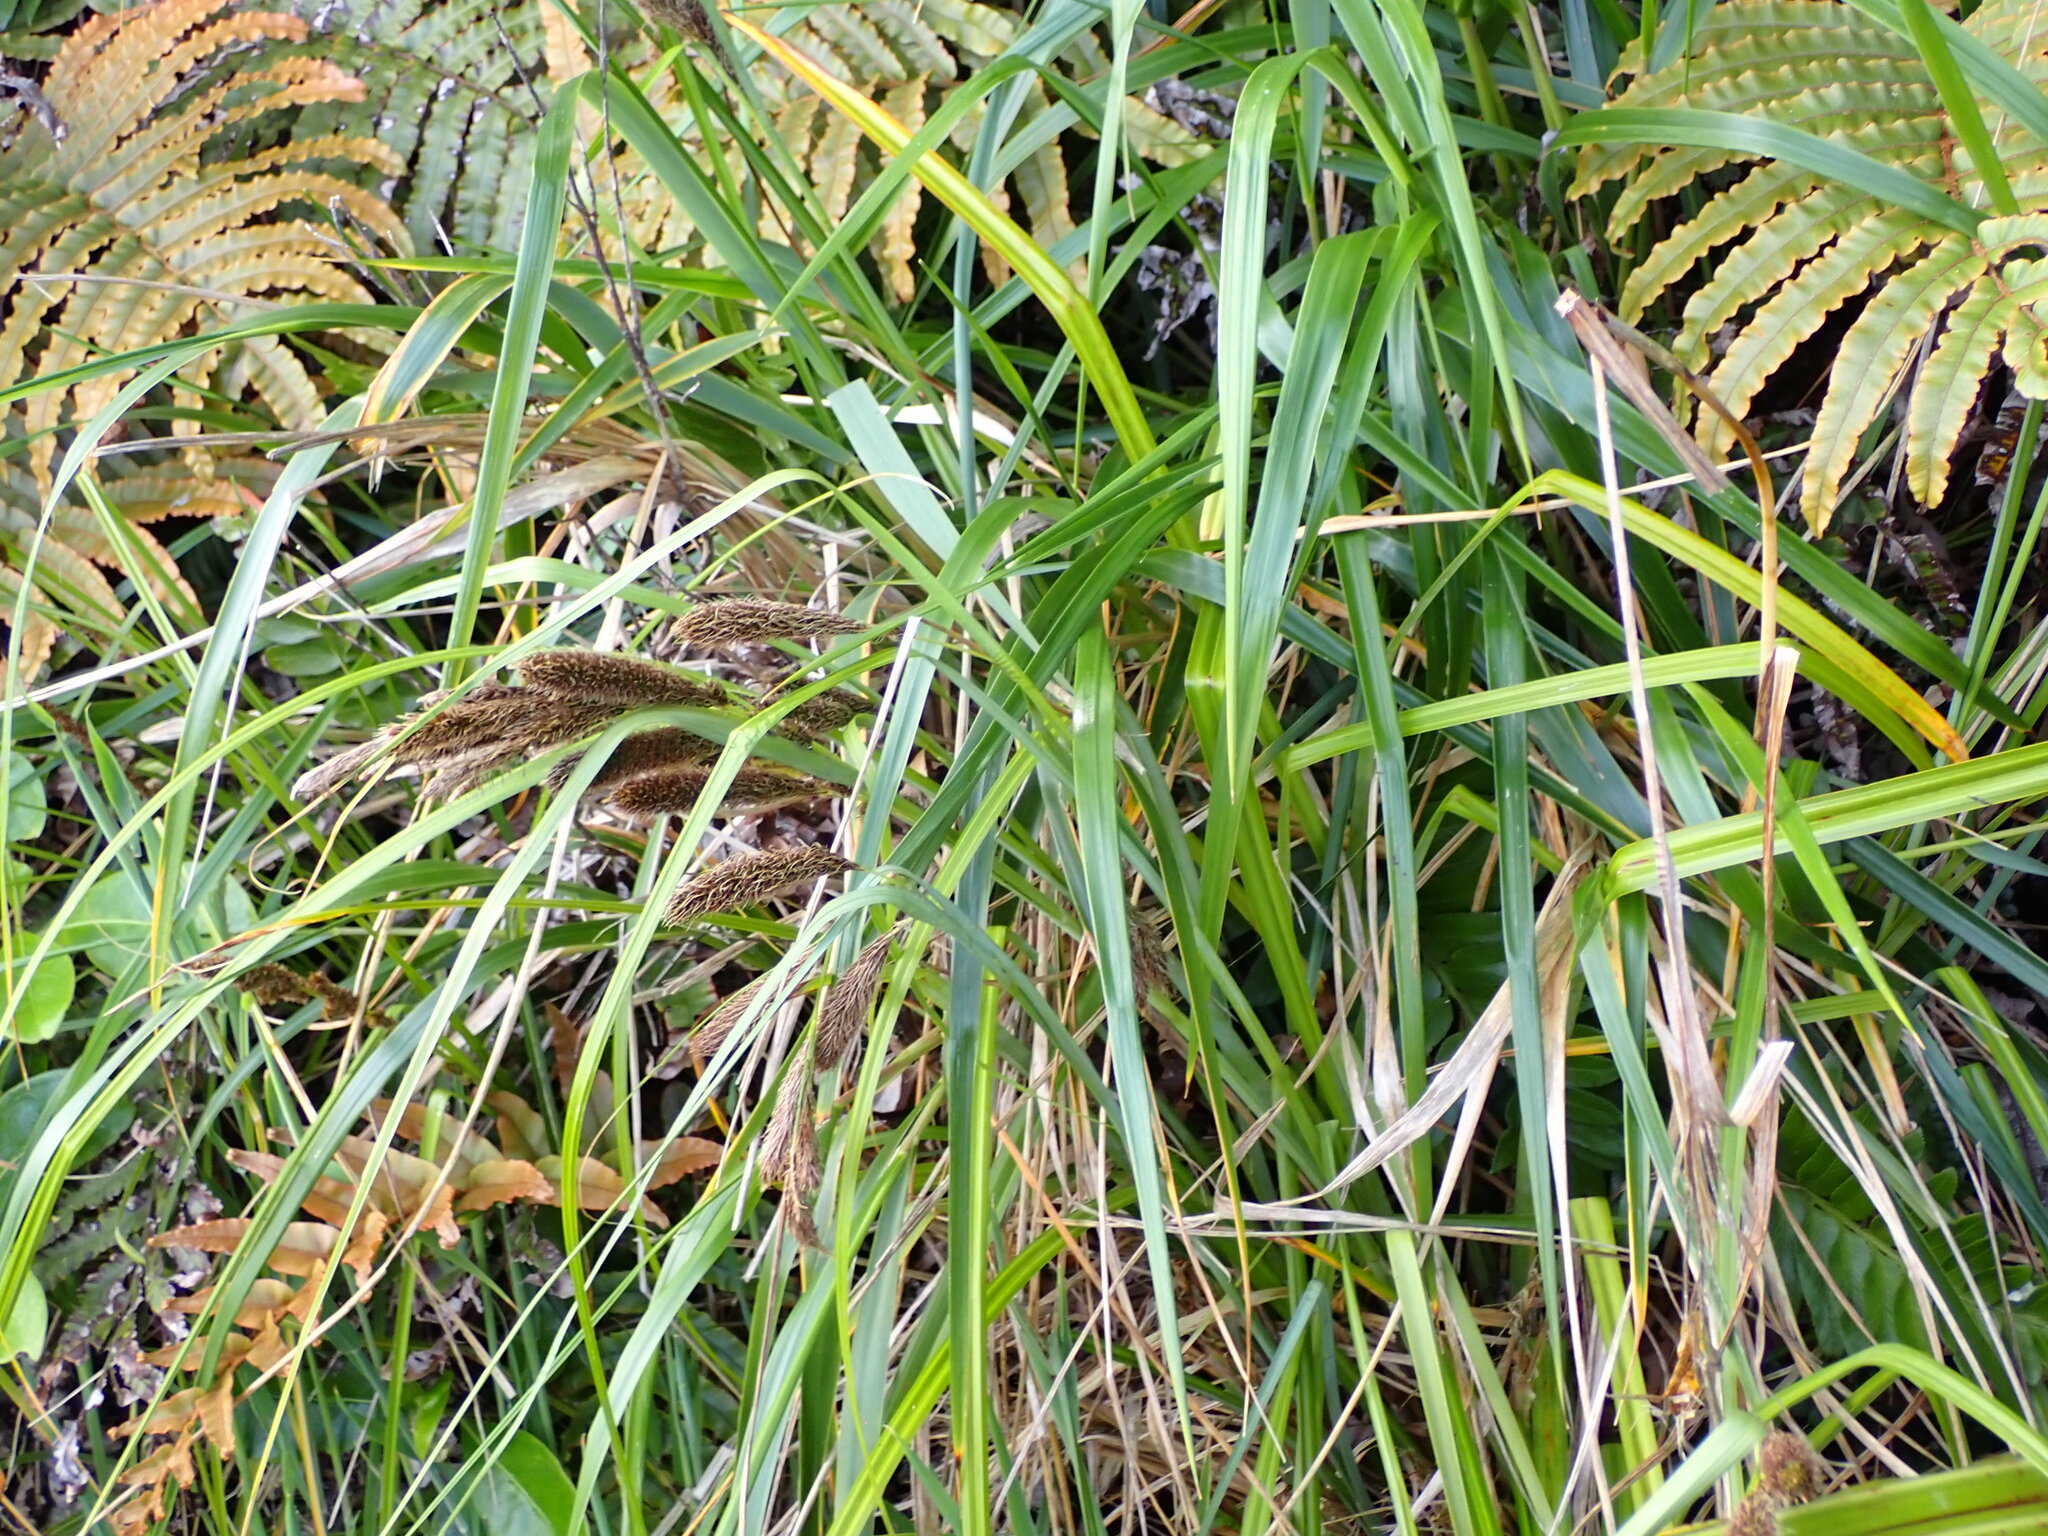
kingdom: Plantae
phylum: Tracheophyta
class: Liliopsida
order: Poales
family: Cyperaceae
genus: Carex
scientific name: Carex trifida
